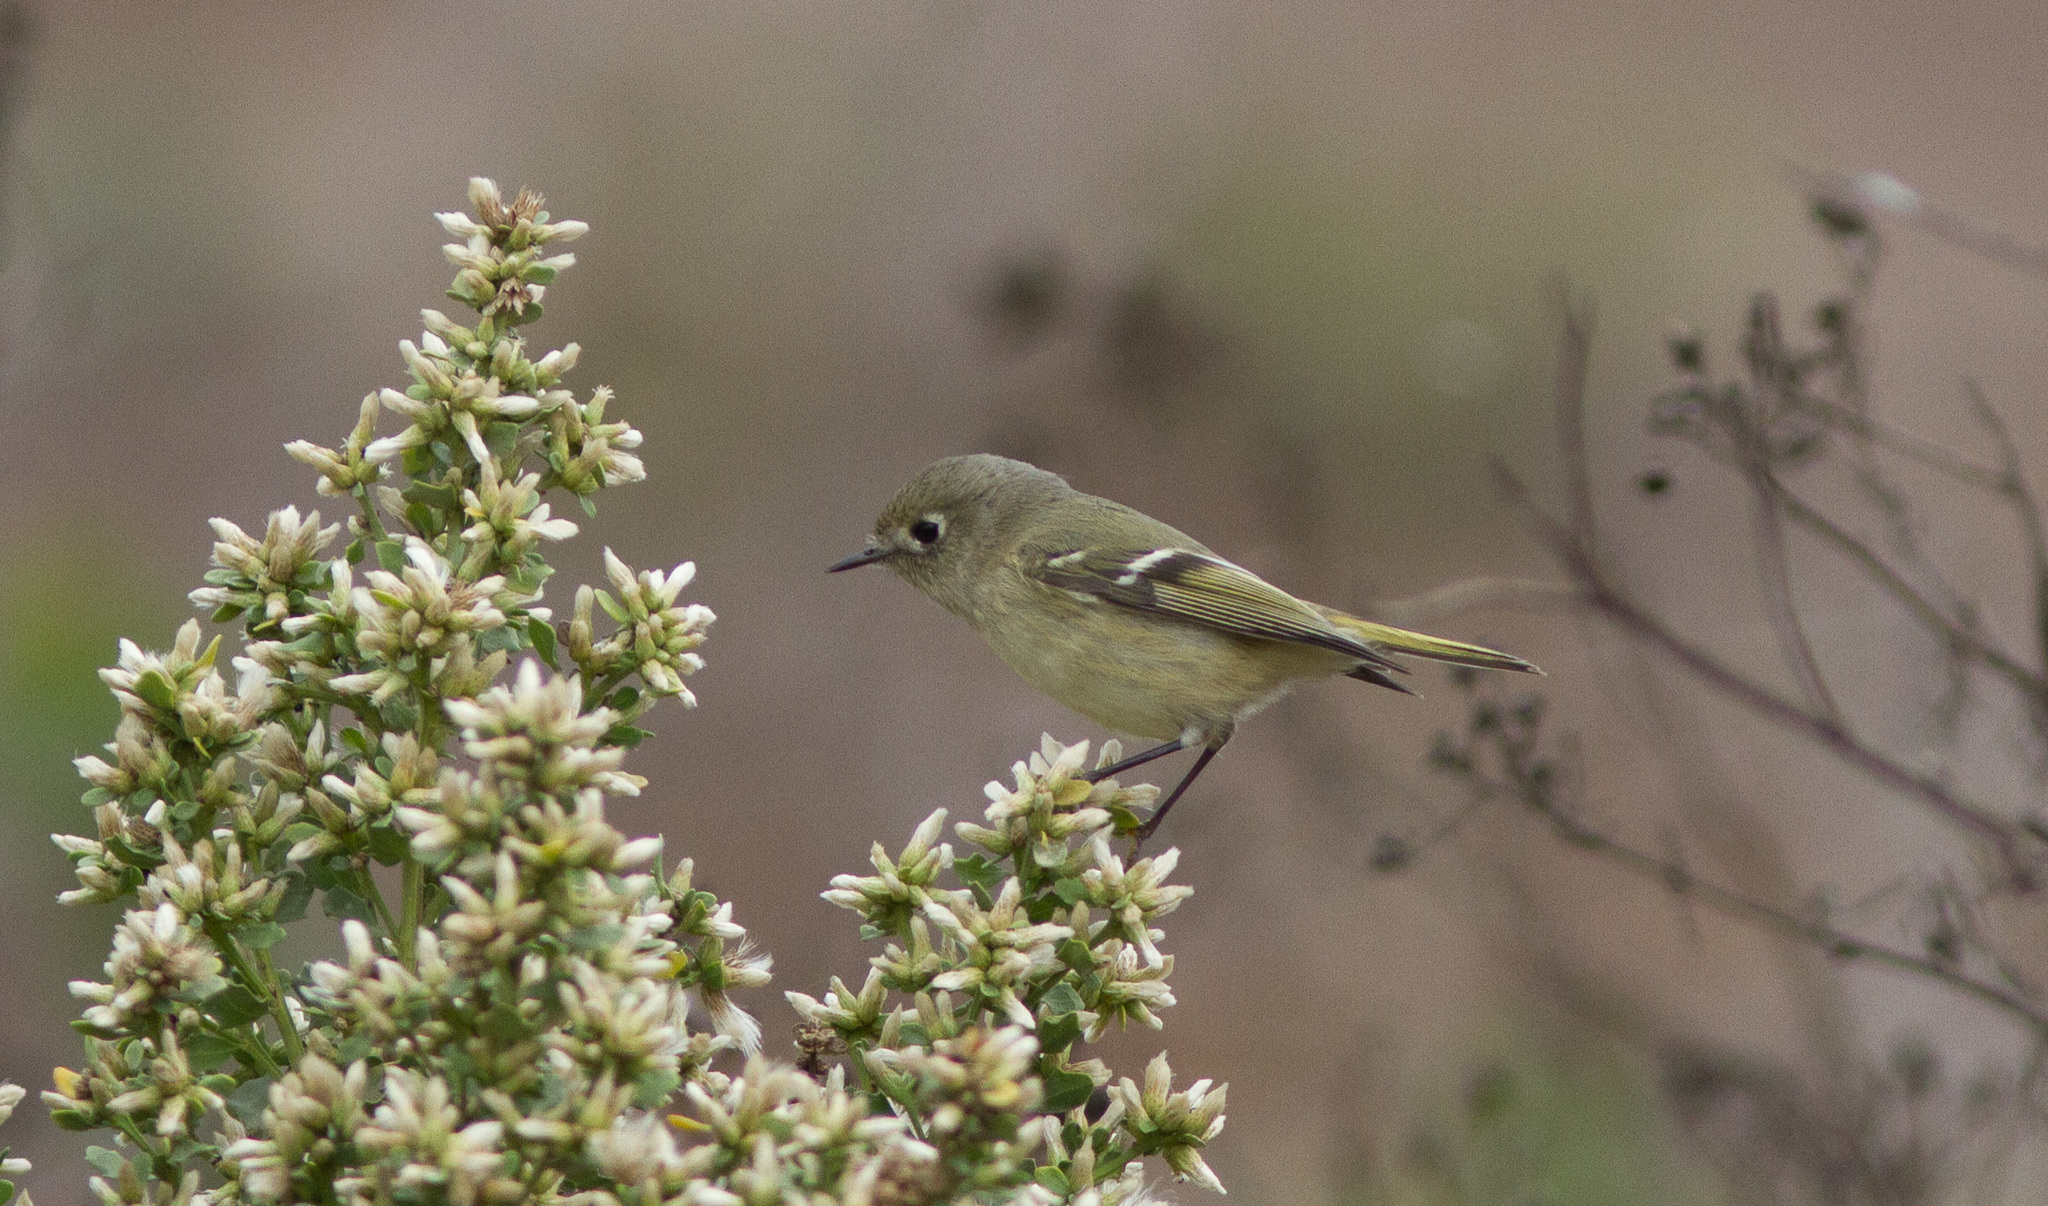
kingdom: Animalia
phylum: Chordata
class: Aves
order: Passeriformes
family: Regulidae
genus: Regulus
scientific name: Regulus calendula
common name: Ruby-crowned kinglet
